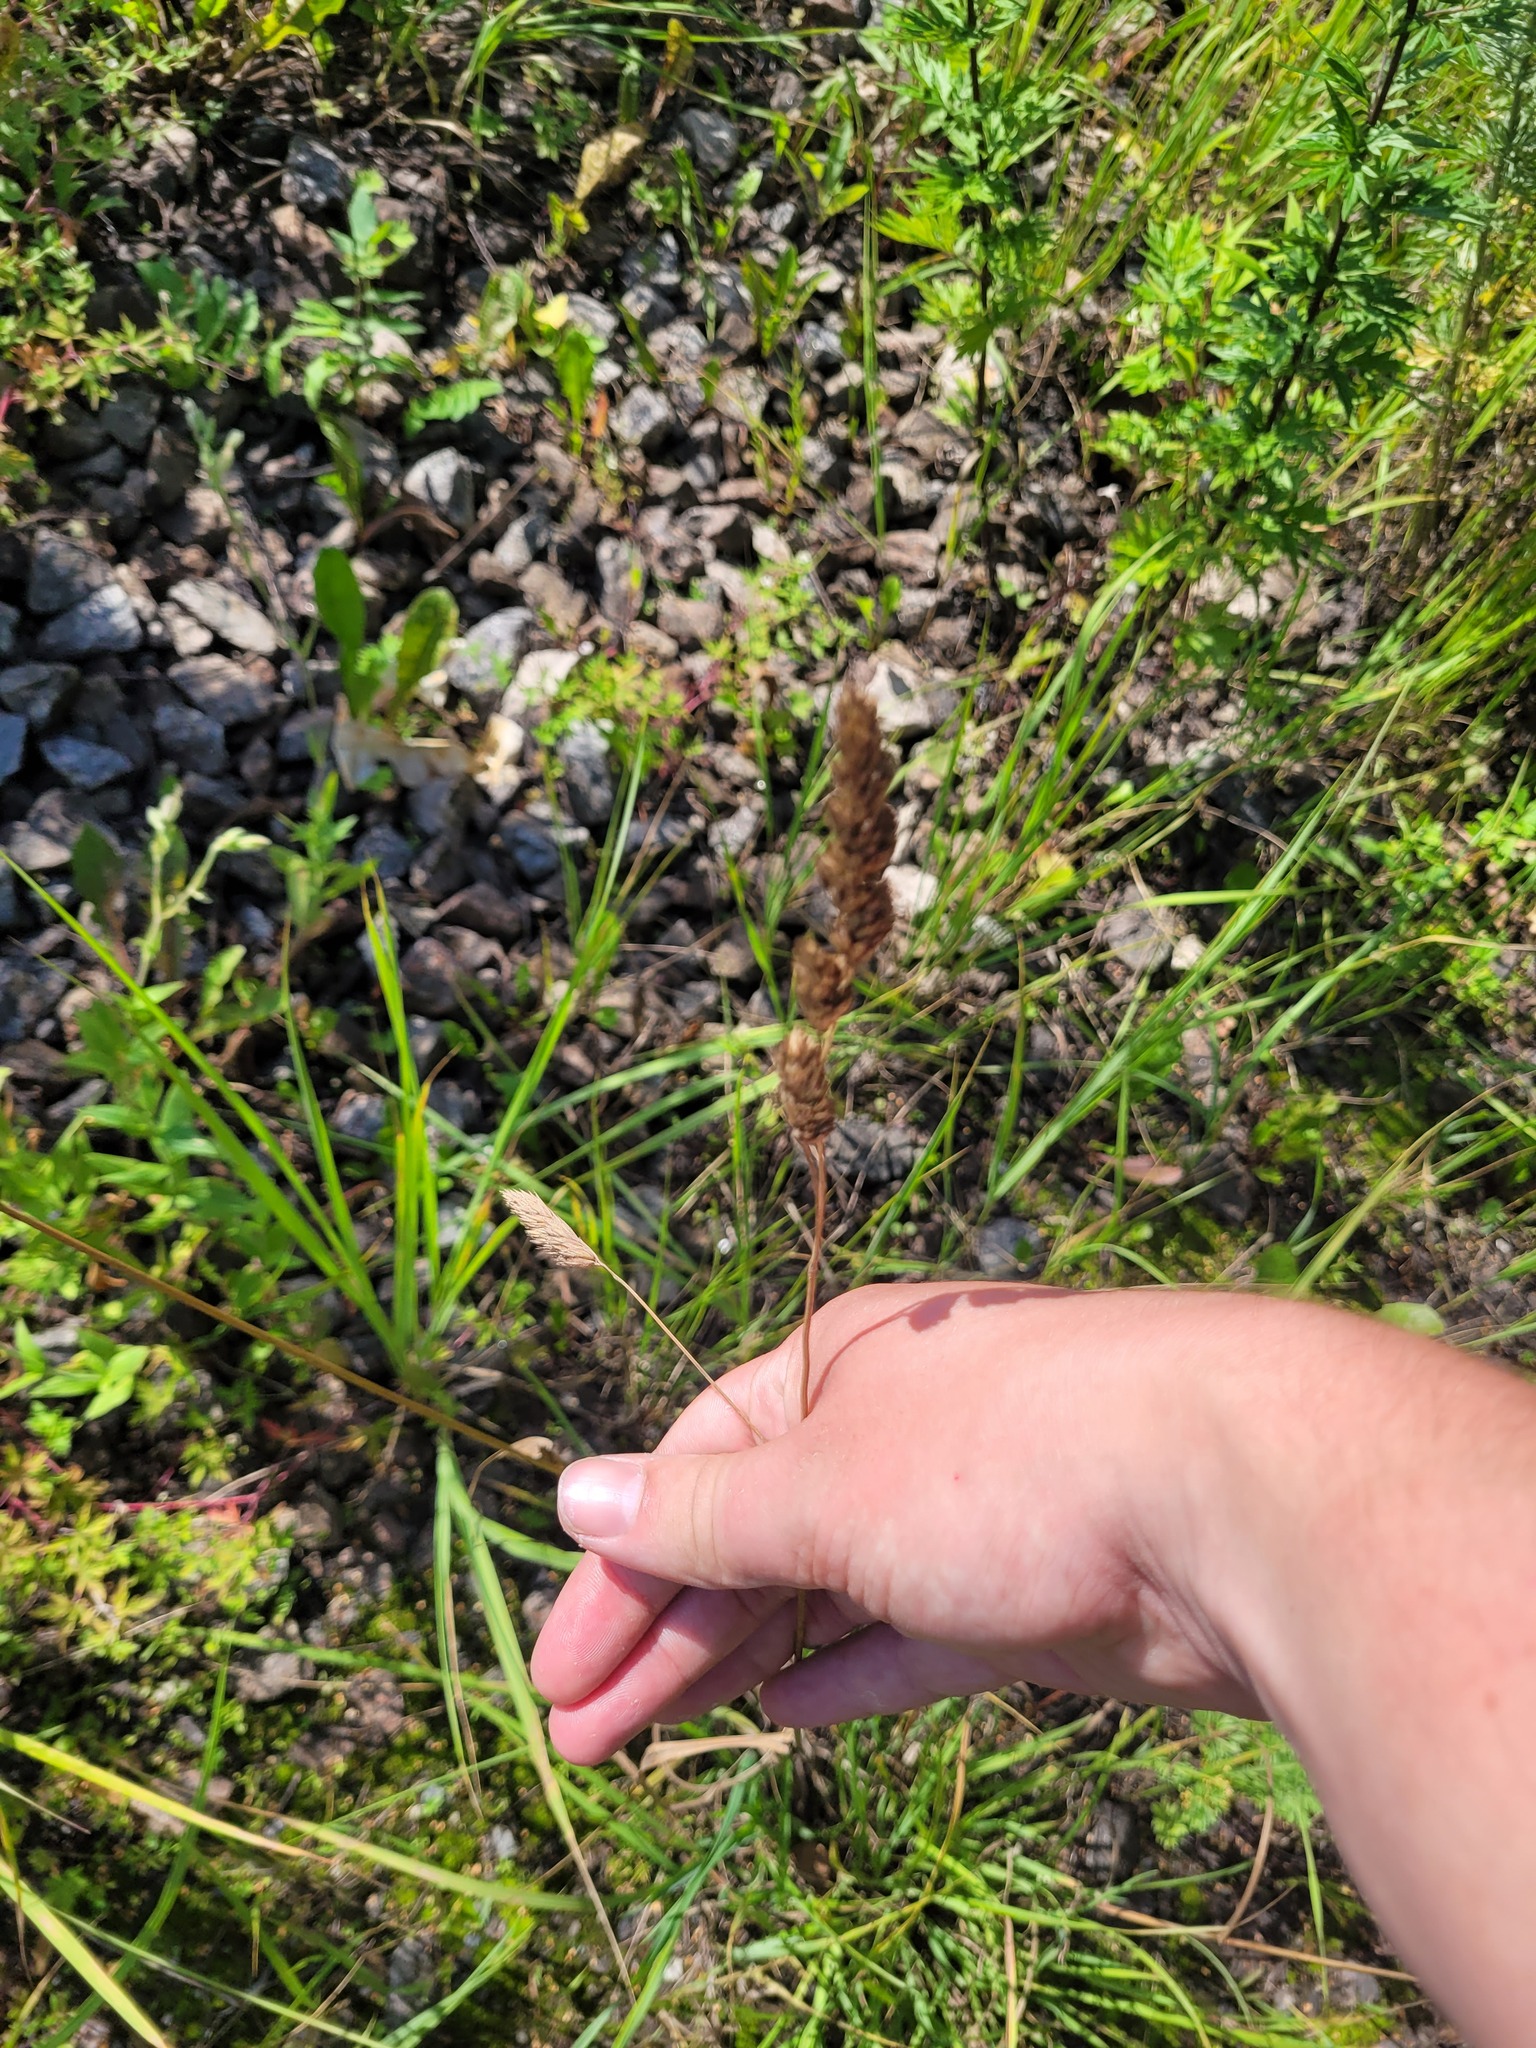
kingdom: Plantae
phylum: Tracheophyta
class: Liliopsida
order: Poales
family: Poaceae
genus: Dactylis
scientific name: Dactylis glomerata
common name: Orchardgrass
